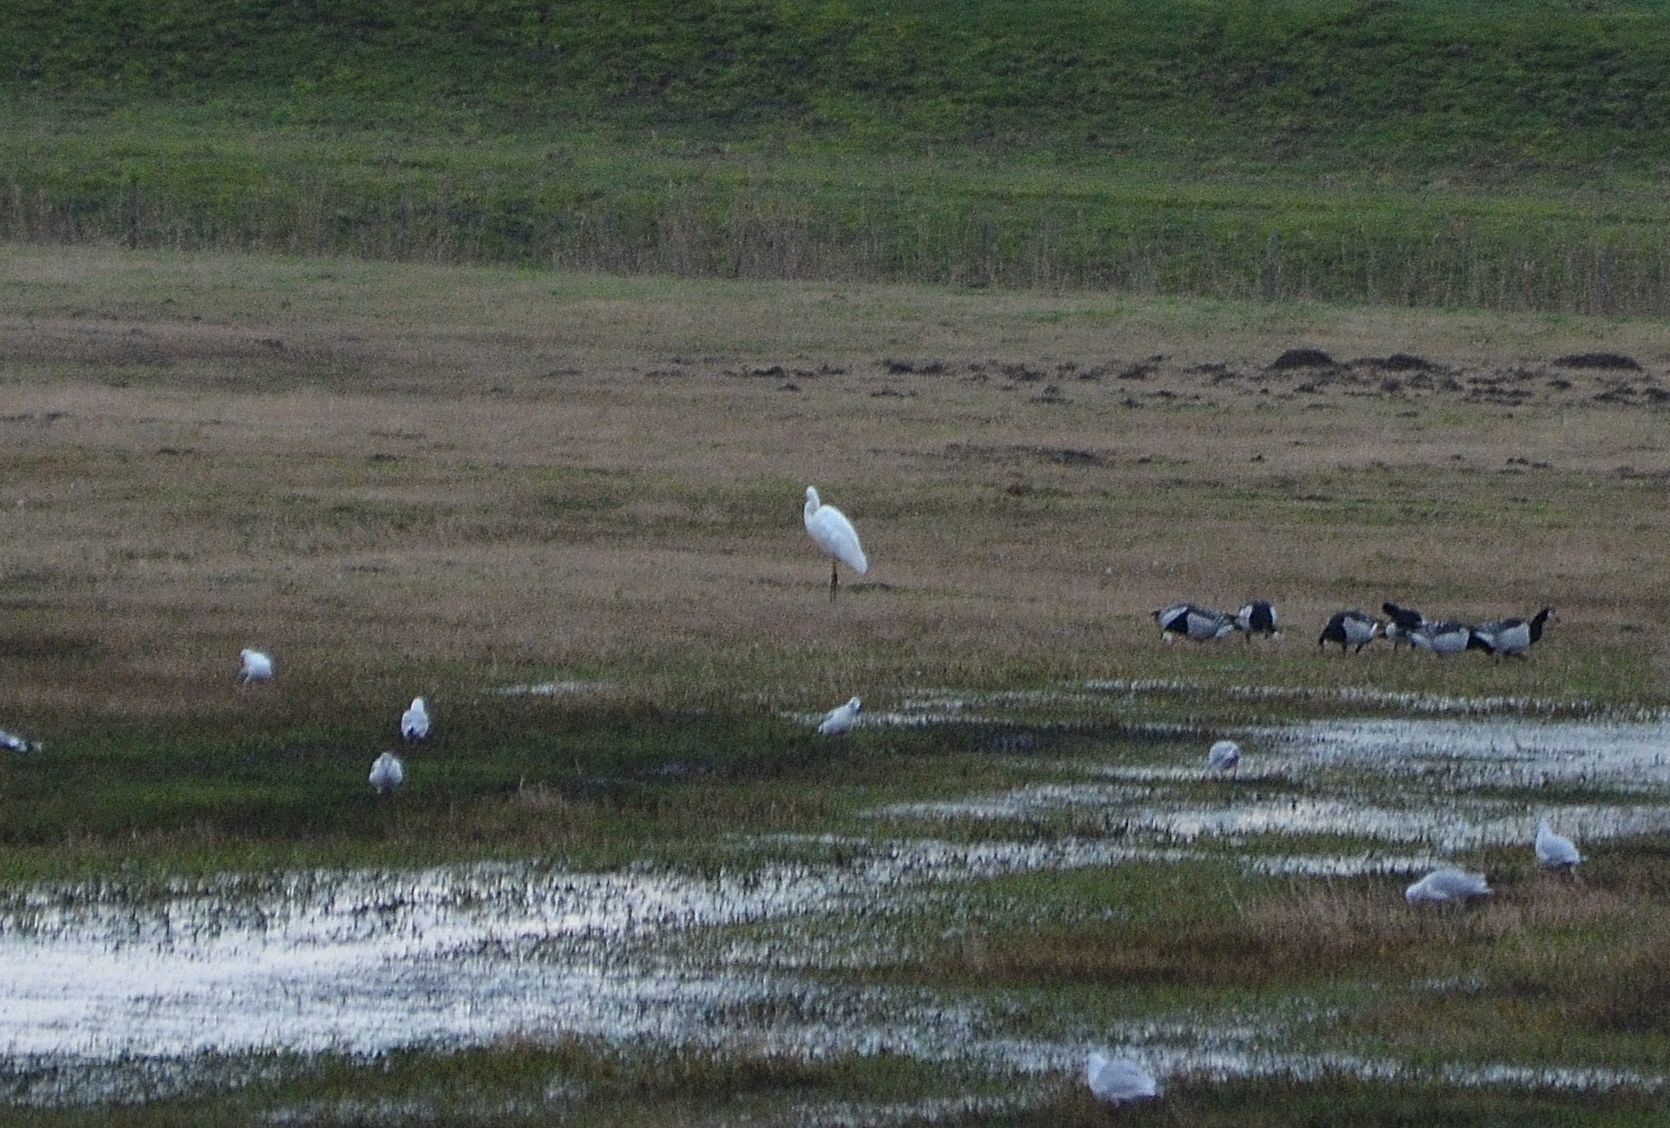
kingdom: Animalia
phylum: Chordata
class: Aves
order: Pelecaniformes
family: Ardeidae
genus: Ardea
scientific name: Ardea alba
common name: Great egret
